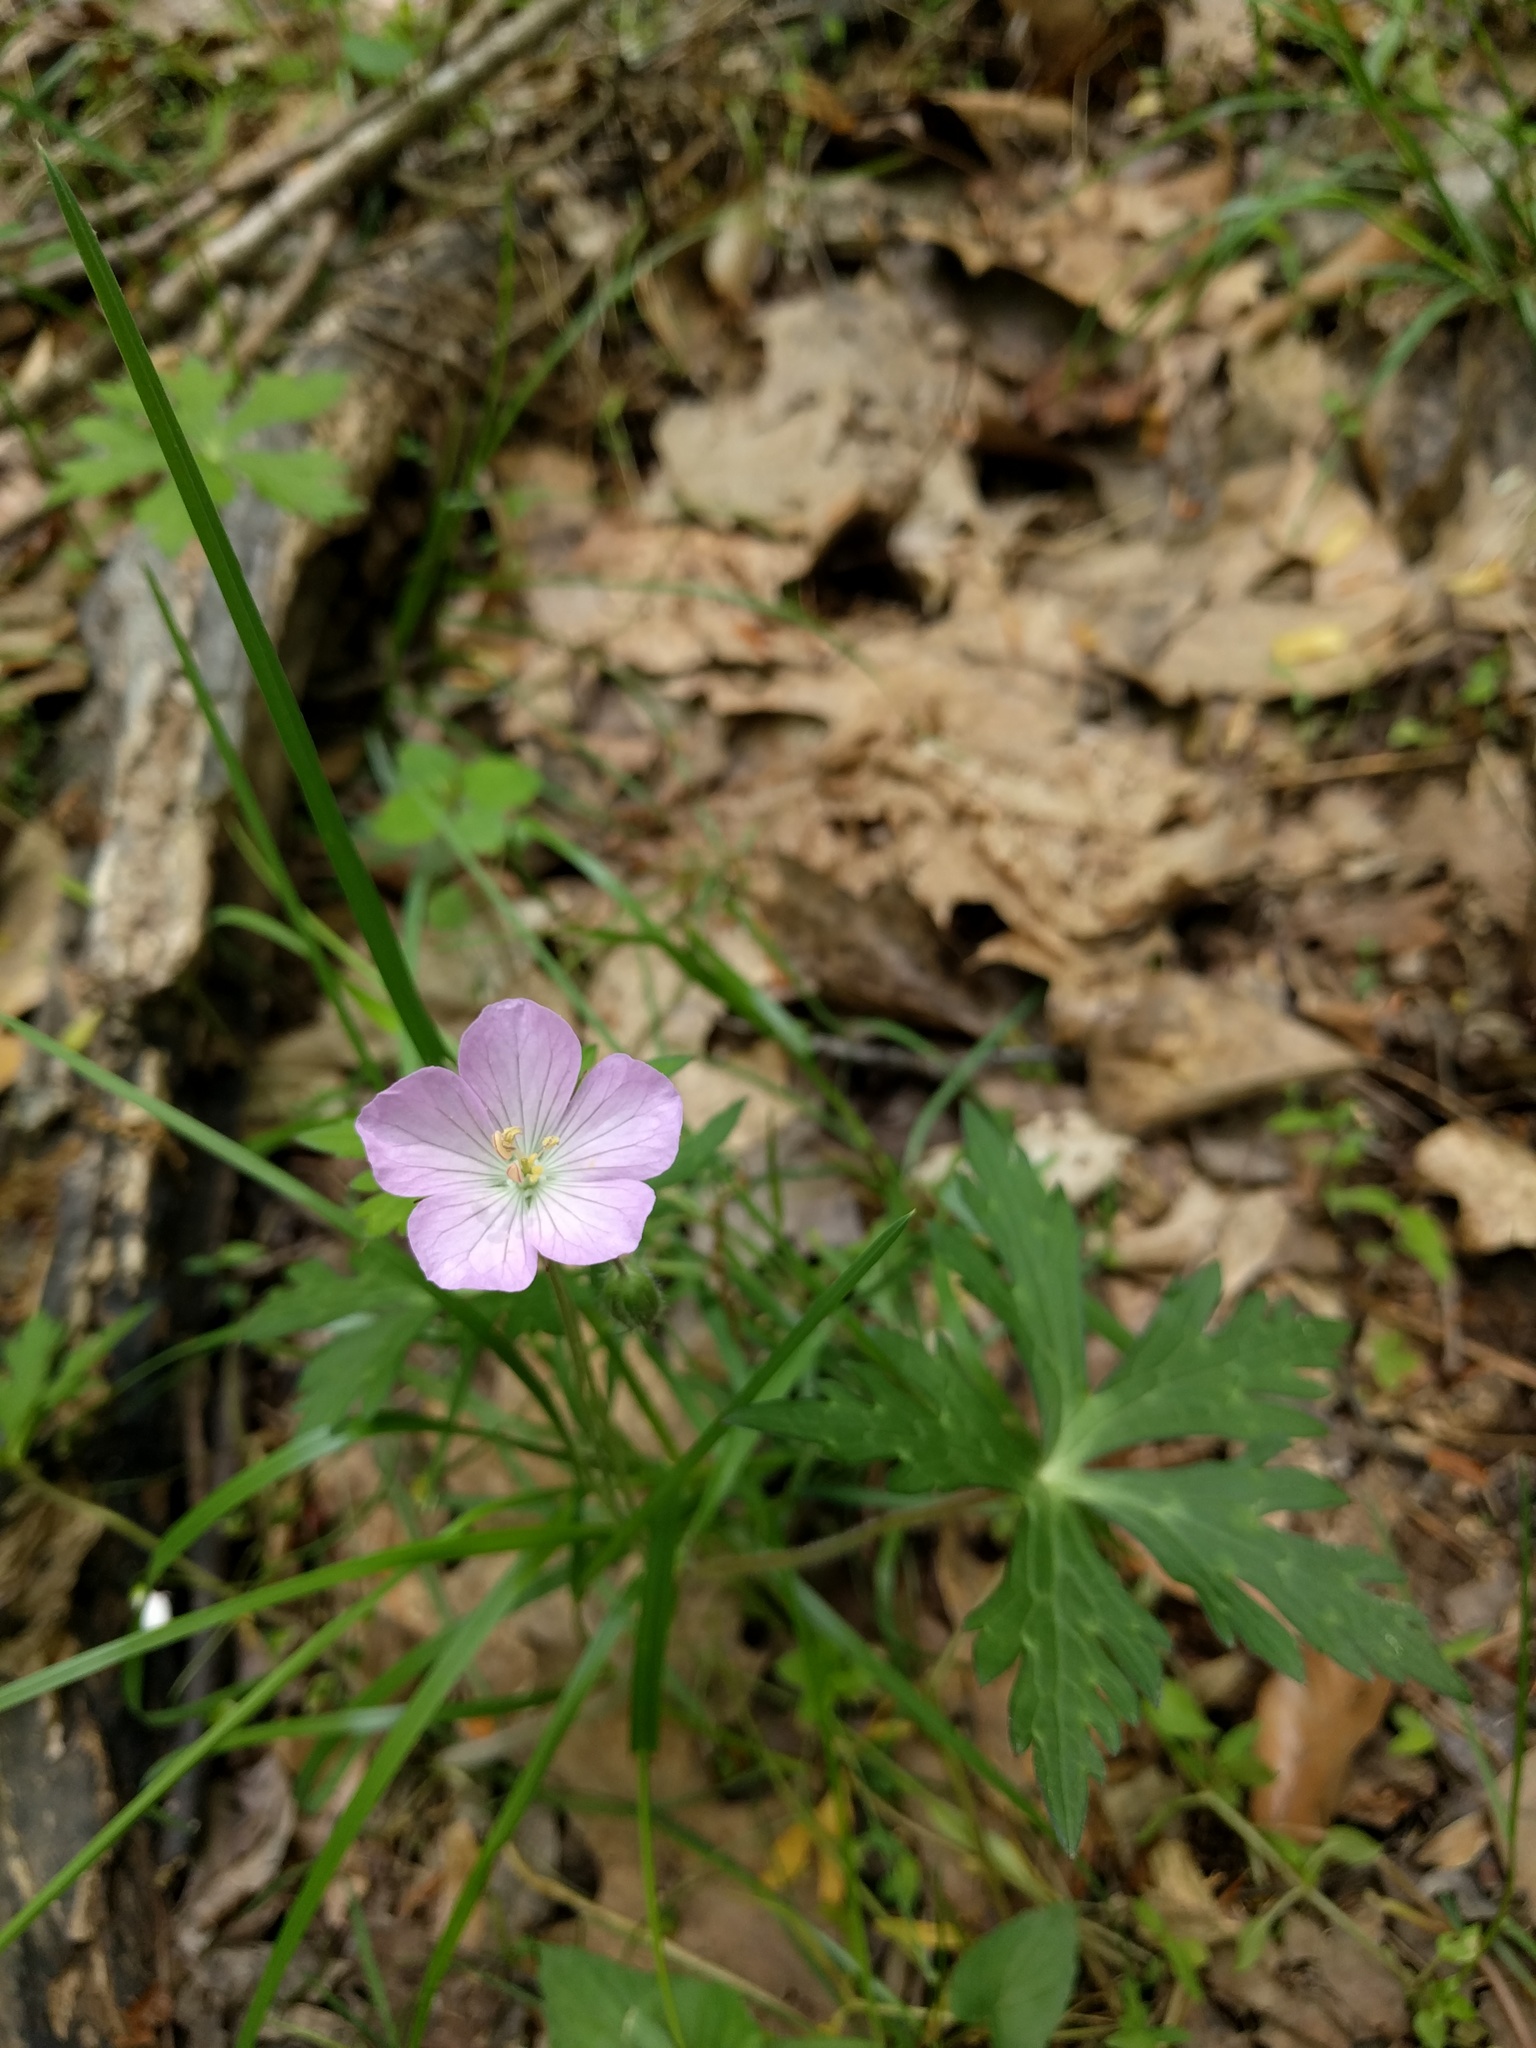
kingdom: Plantae
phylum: Tracheophyta
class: Magnoliopsida
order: Geraniales
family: Geraniaceae
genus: Geranium
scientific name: Geranium maculatum
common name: Spotted geranium
